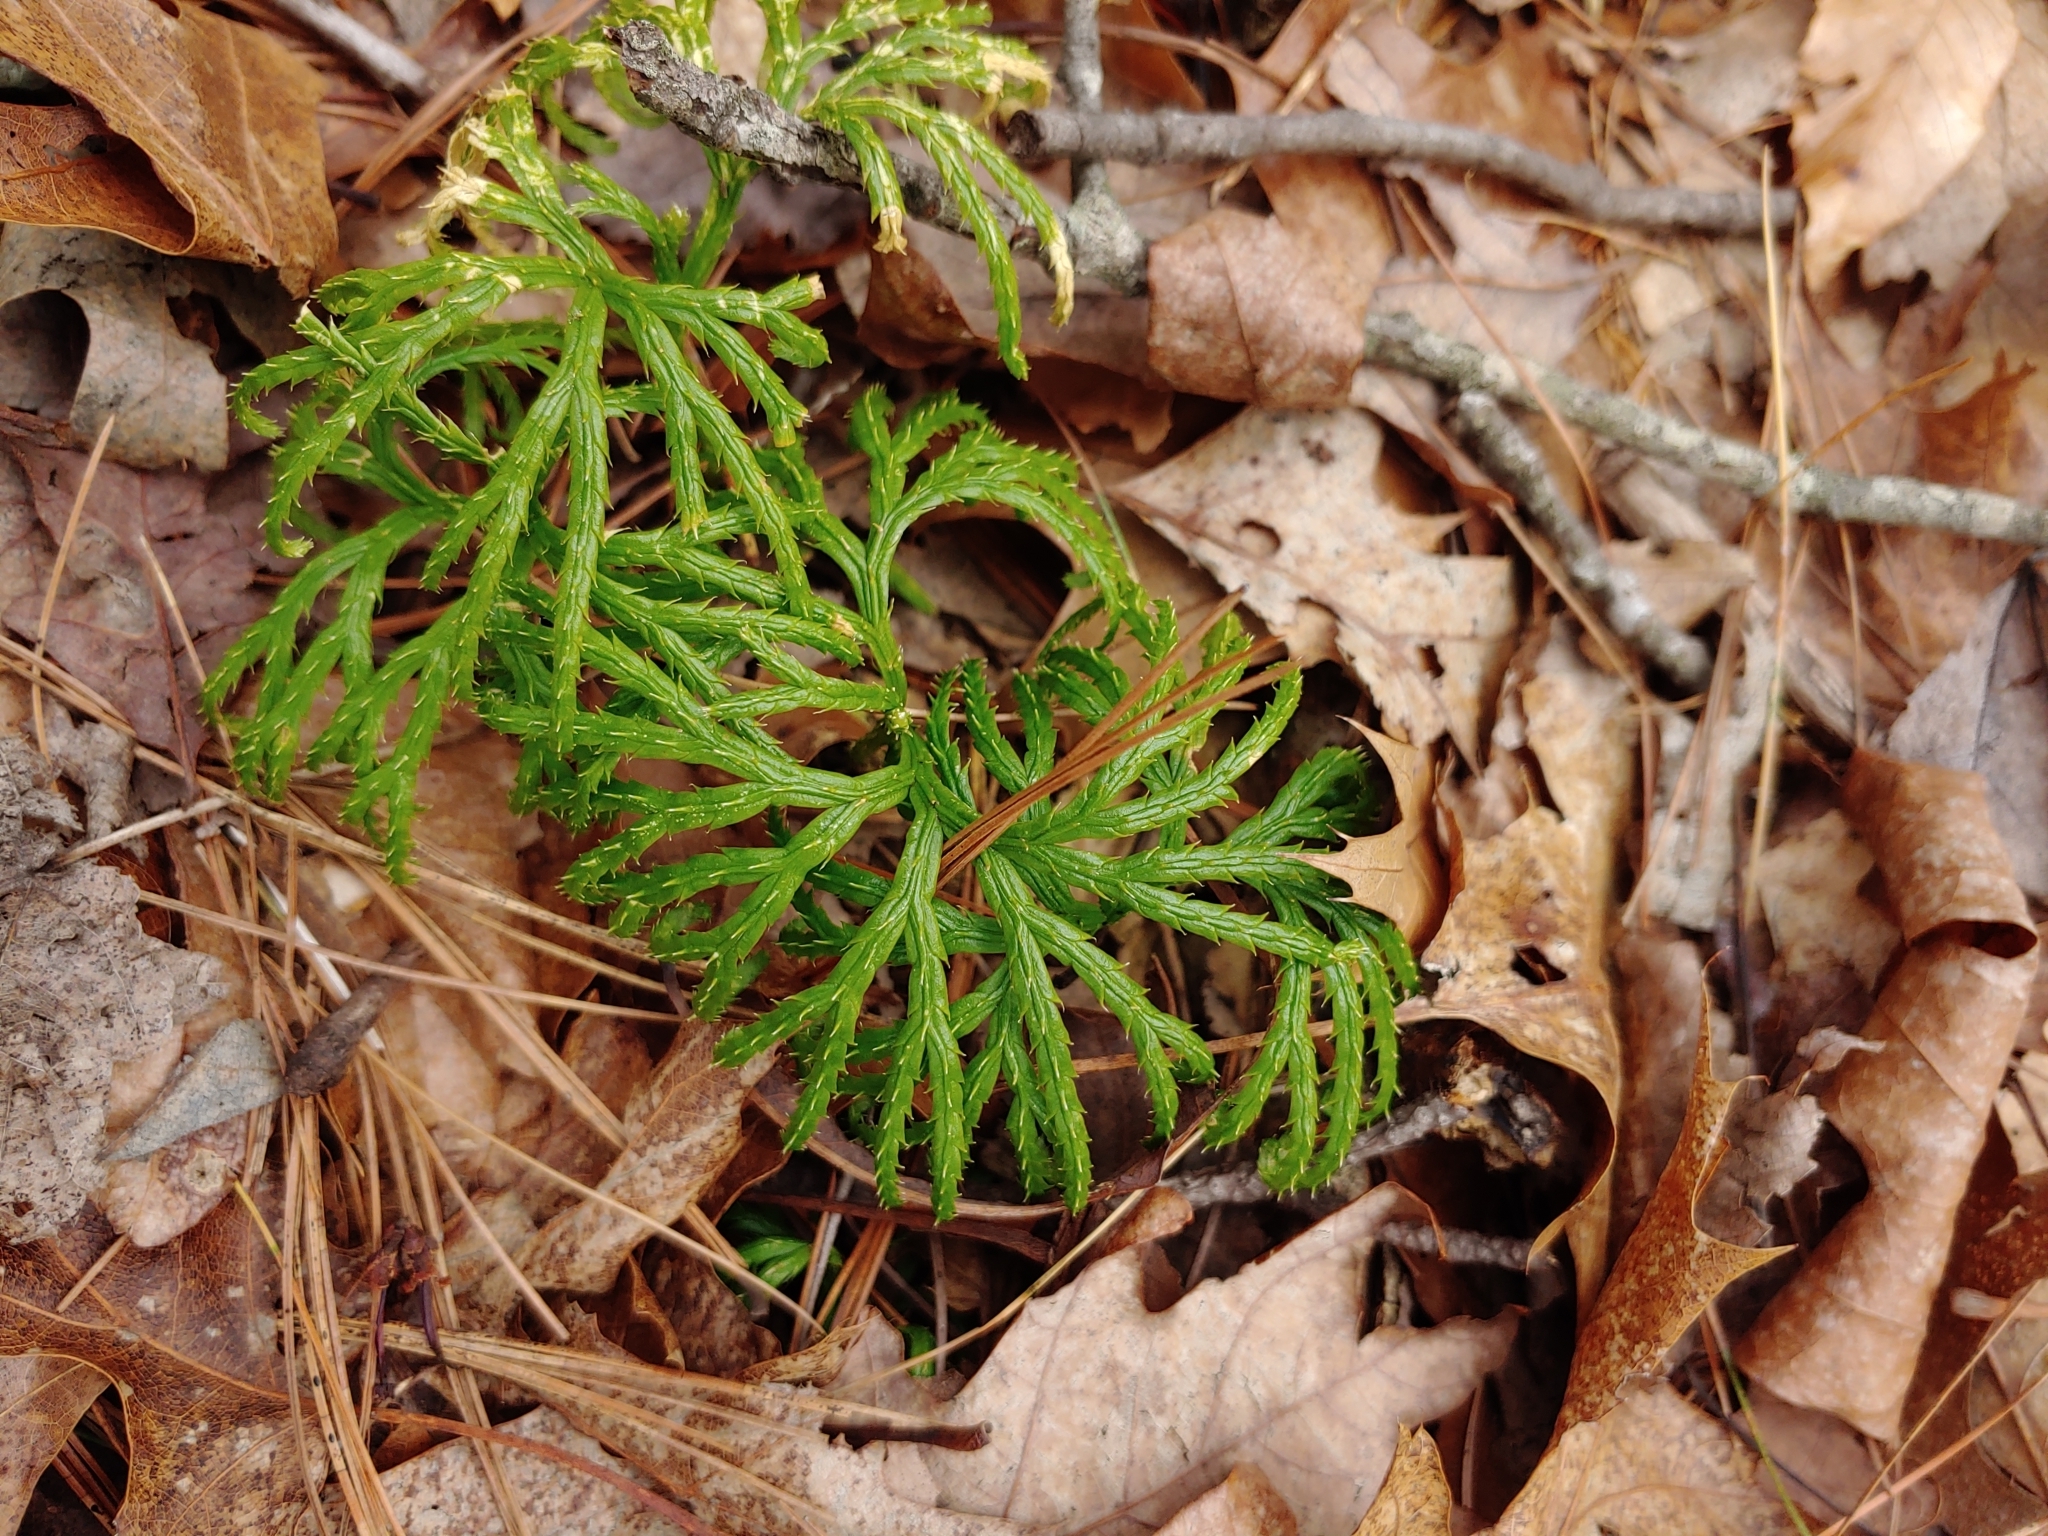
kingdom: Plantae
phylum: Tracheophyta
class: Lycopodiopsida
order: Lycopodiales
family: Lycopodiaceae
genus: Diphasiastrum
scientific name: Diphasiastrum digitatum
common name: Southern running-pine
